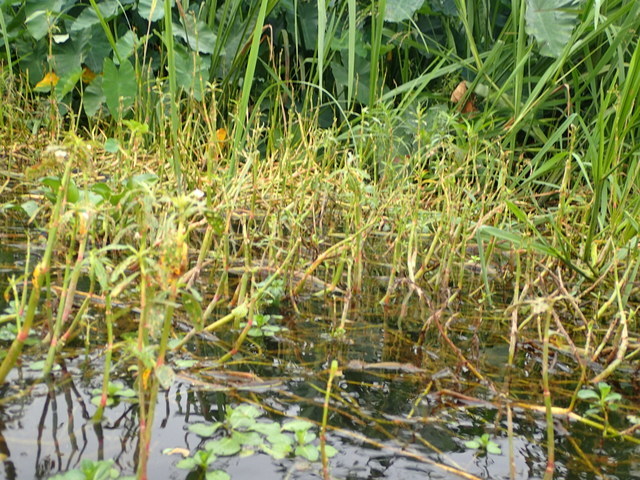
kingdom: Plantae
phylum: Tracheophyta
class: Magnoliopsida
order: Caryophyllales
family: Amaranthaceae
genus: Alternanthera
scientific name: Alternanthera philoxeroides
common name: Alligatorweed
